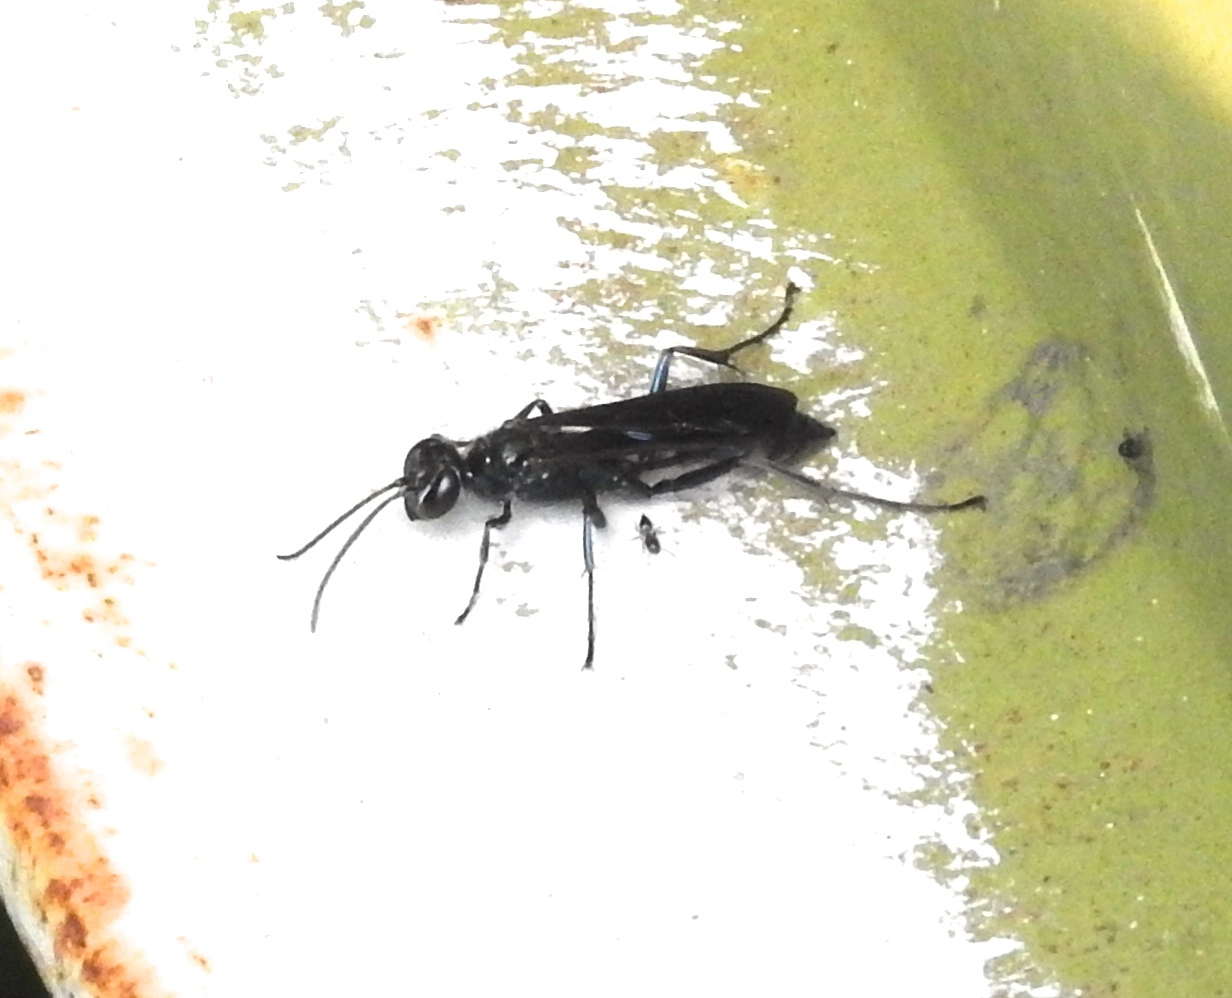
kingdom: Animalia
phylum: Arthropoda
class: Insecta
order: Hymenoptera
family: Sphecidae
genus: Chalybion
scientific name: Chalybion
